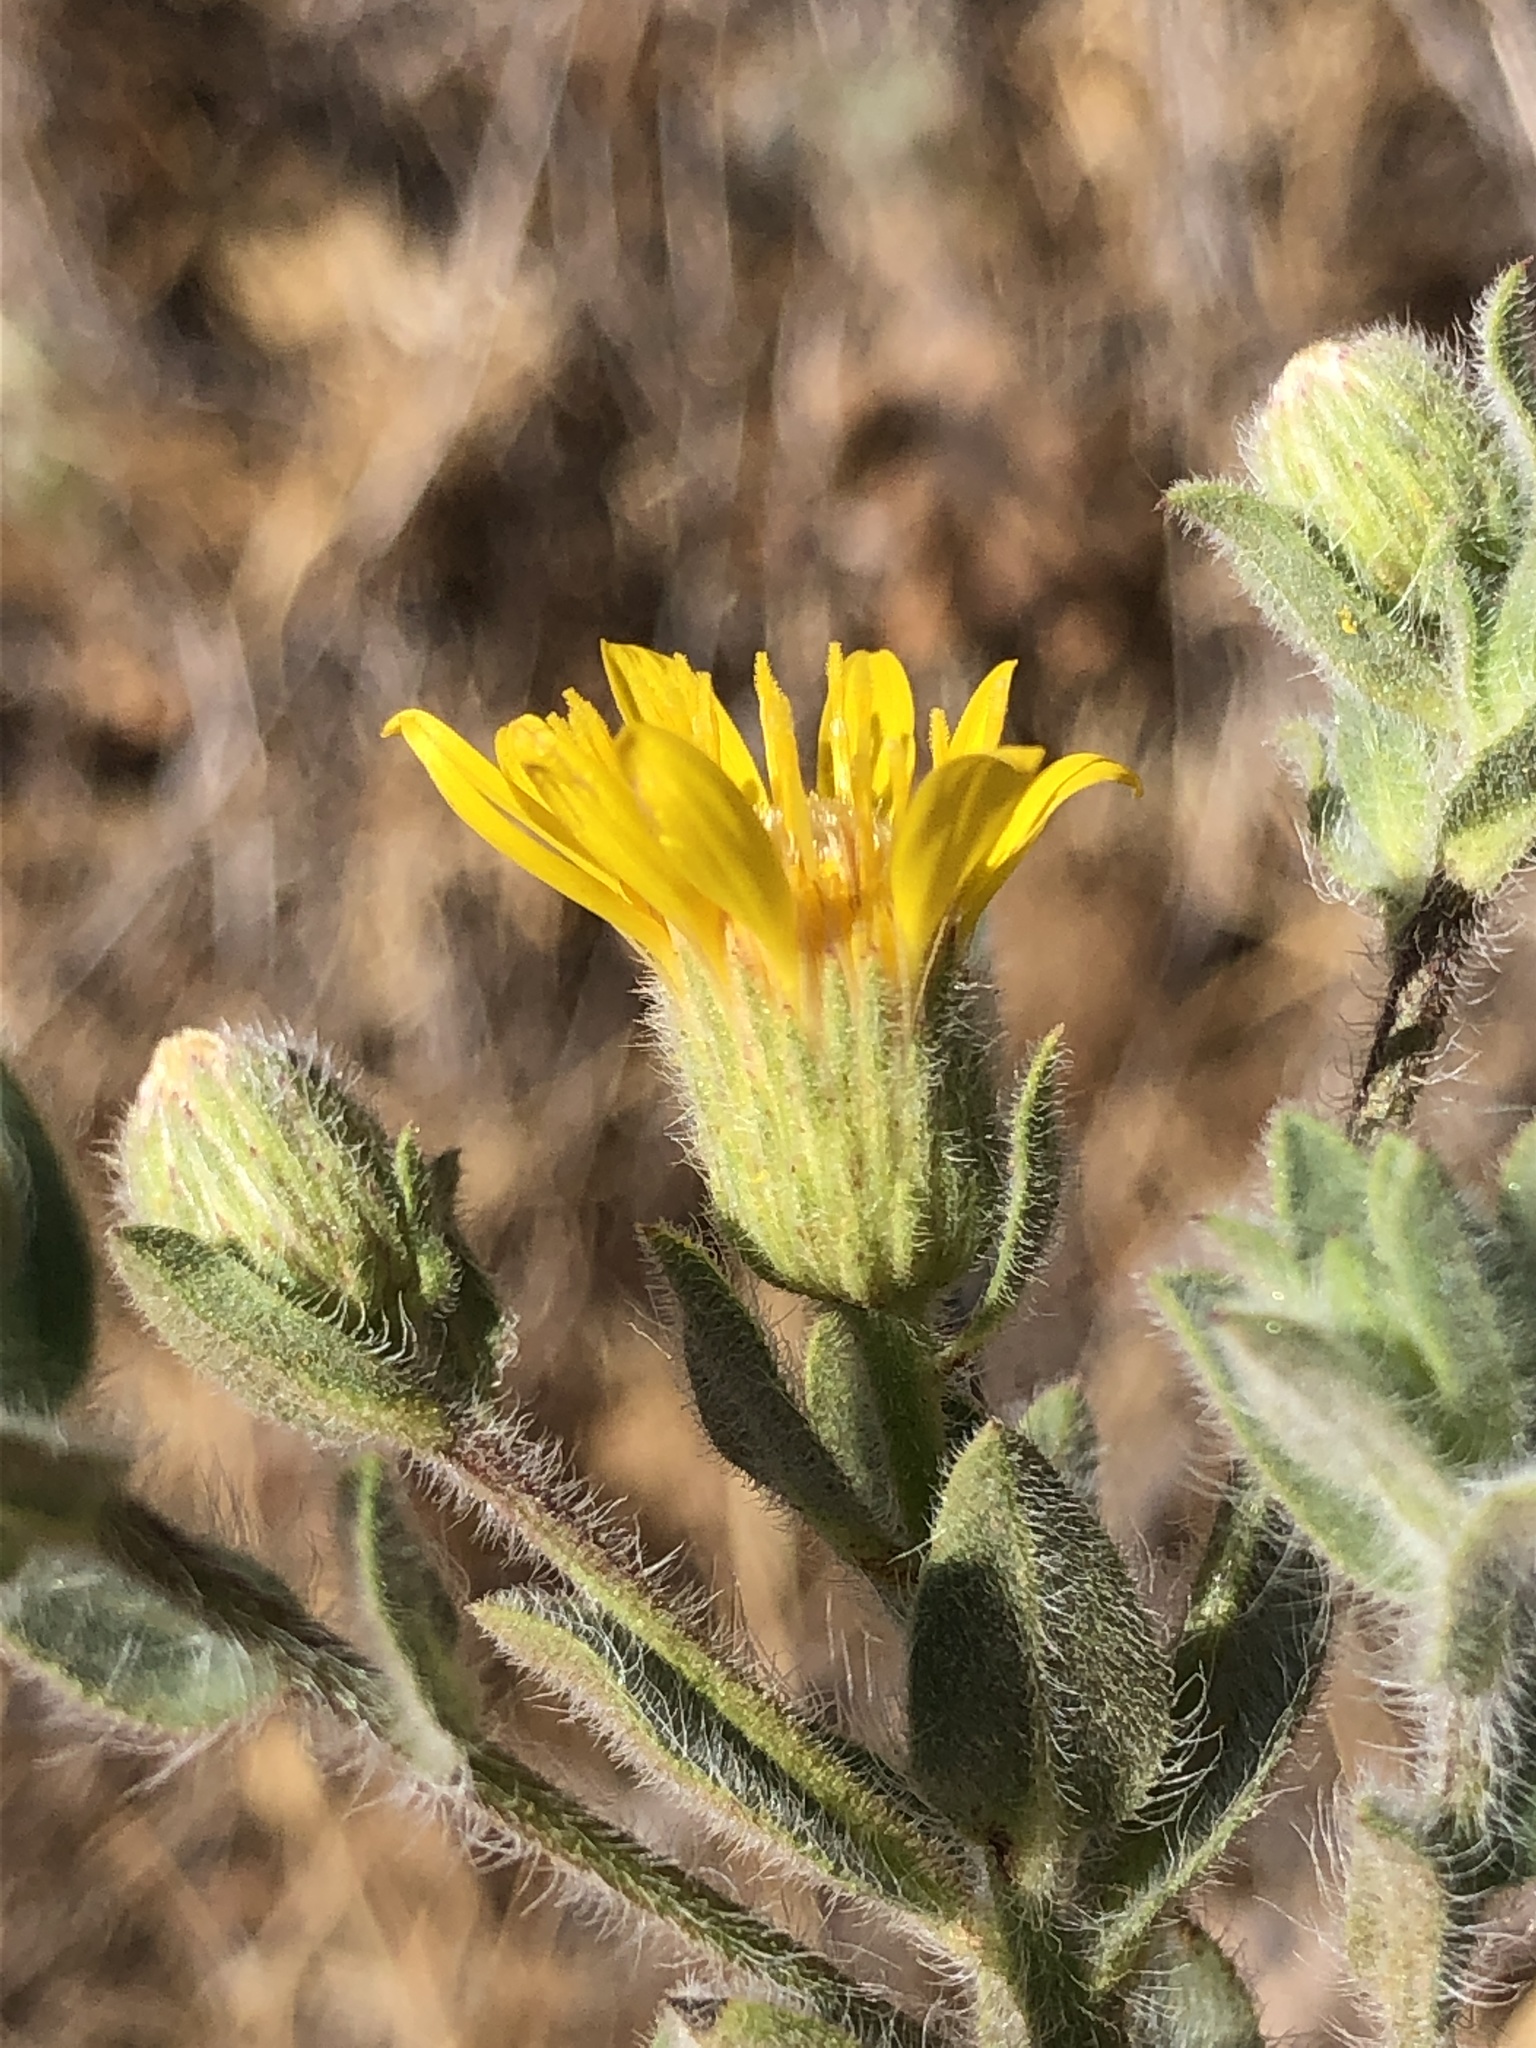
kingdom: Plantae
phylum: Tracheophyta
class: Magnoliopsida
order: Asterales
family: Asteraceae
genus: Heterotheca
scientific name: Heterotheca sessiliflora
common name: Sessile-flower golden-aster
